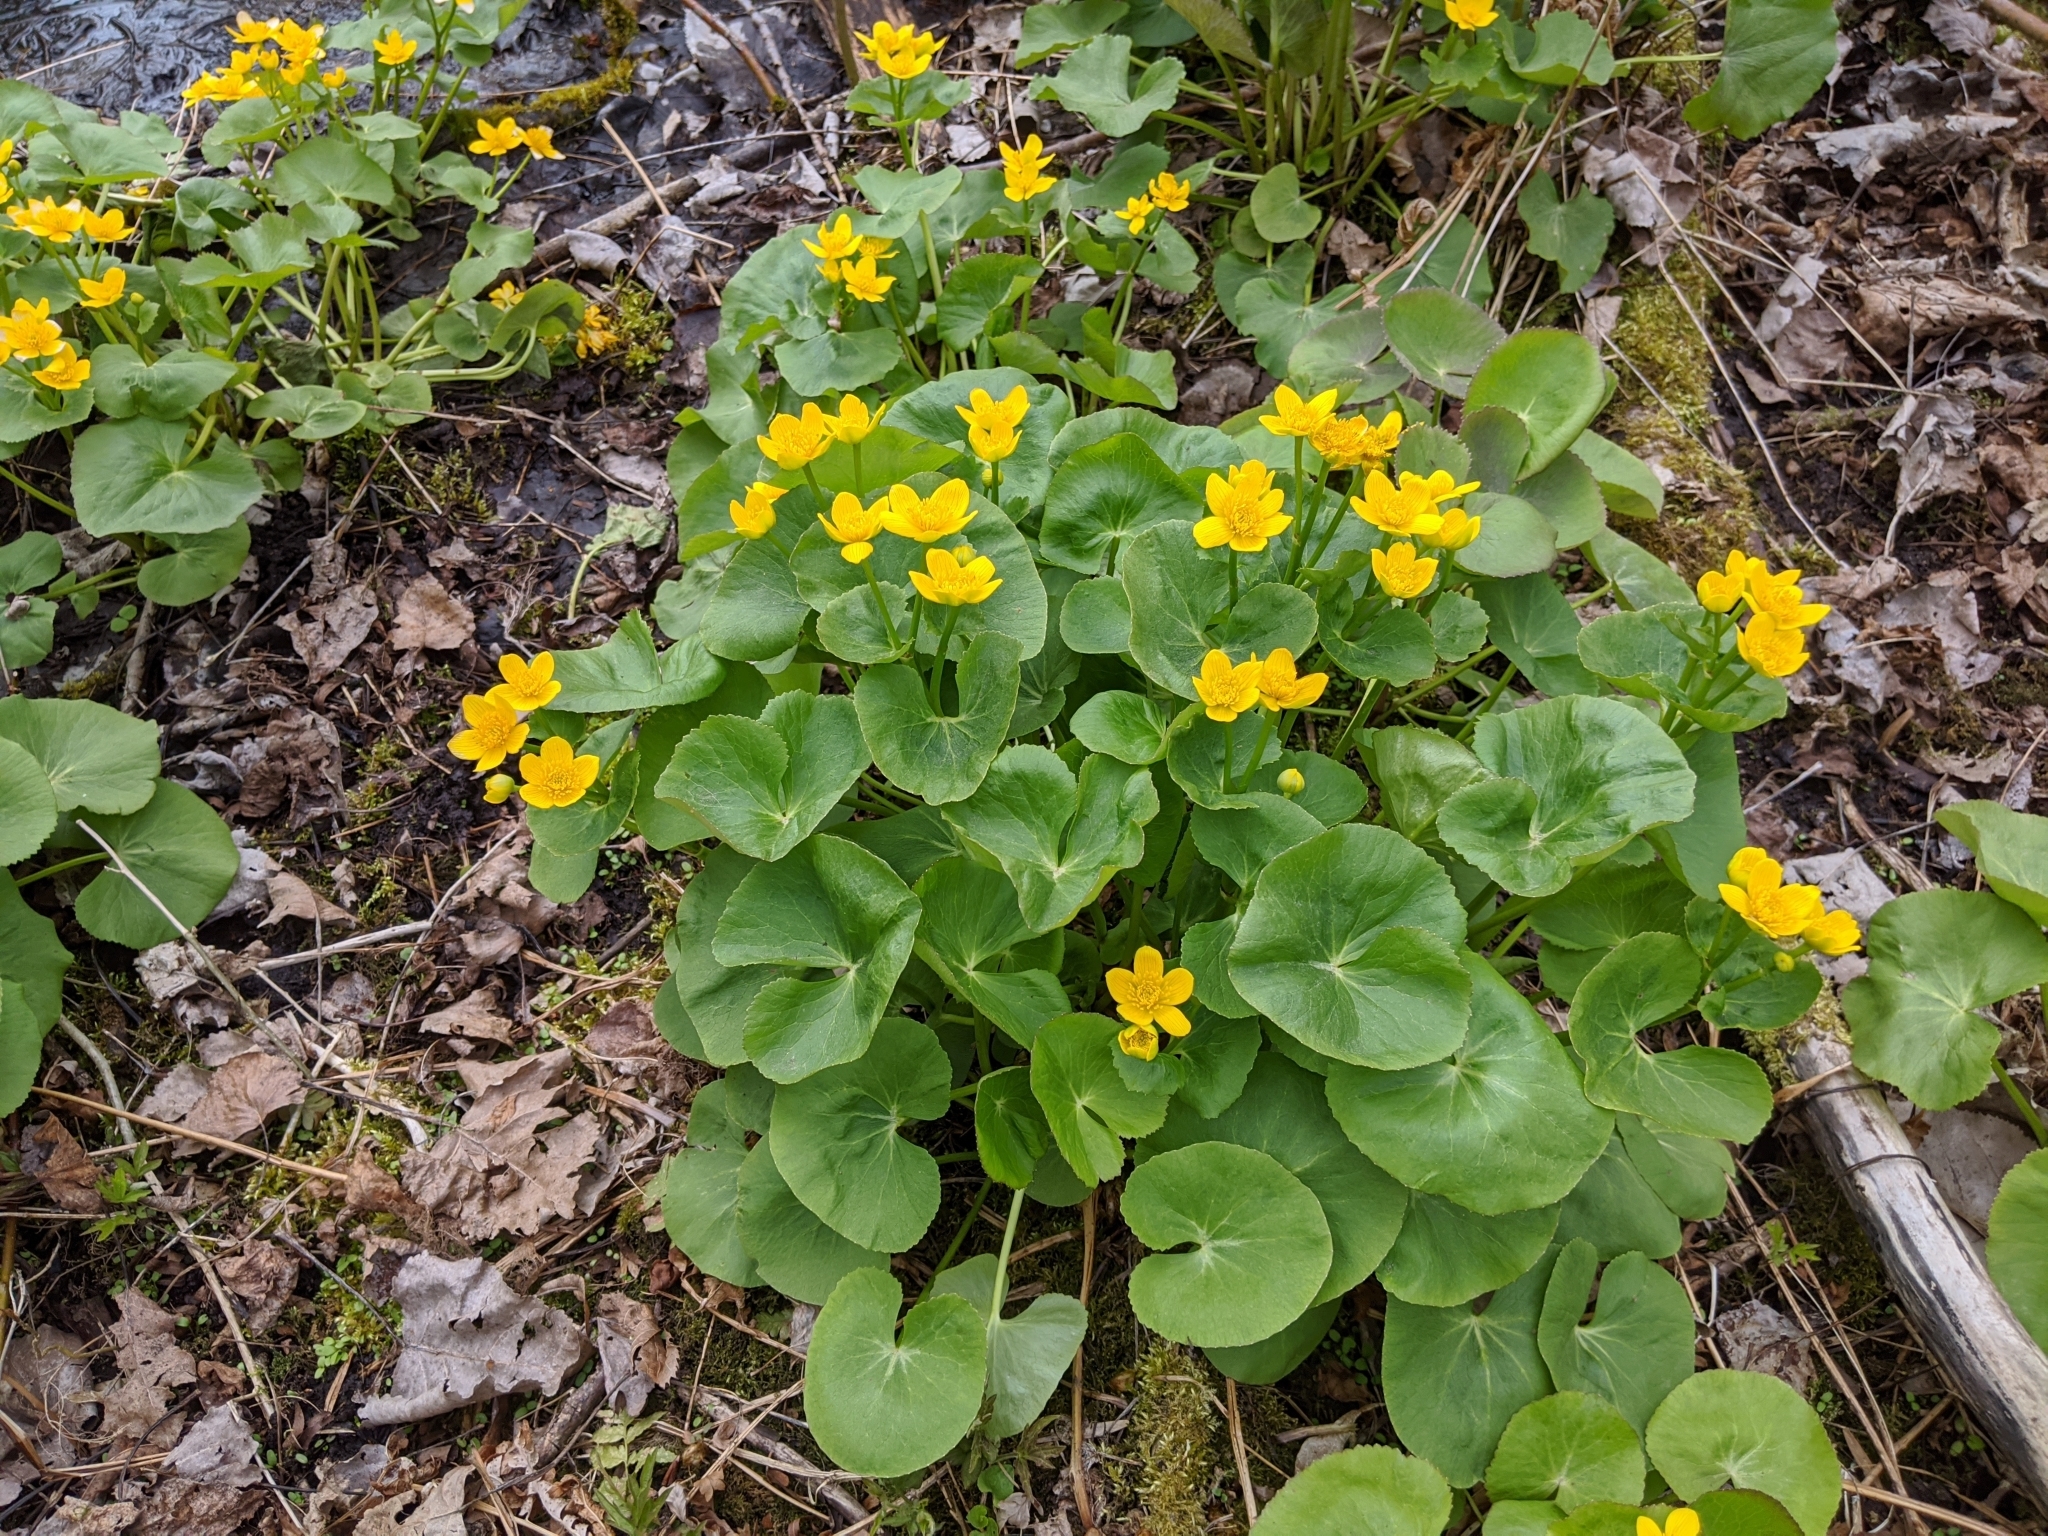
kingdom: Plantae
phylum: Tracheophyta
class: Magnoliopsida
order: Ranunculales
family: Ranunculaceae
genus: Caltha
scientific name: Caltha palustris
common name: Marsh marigold
